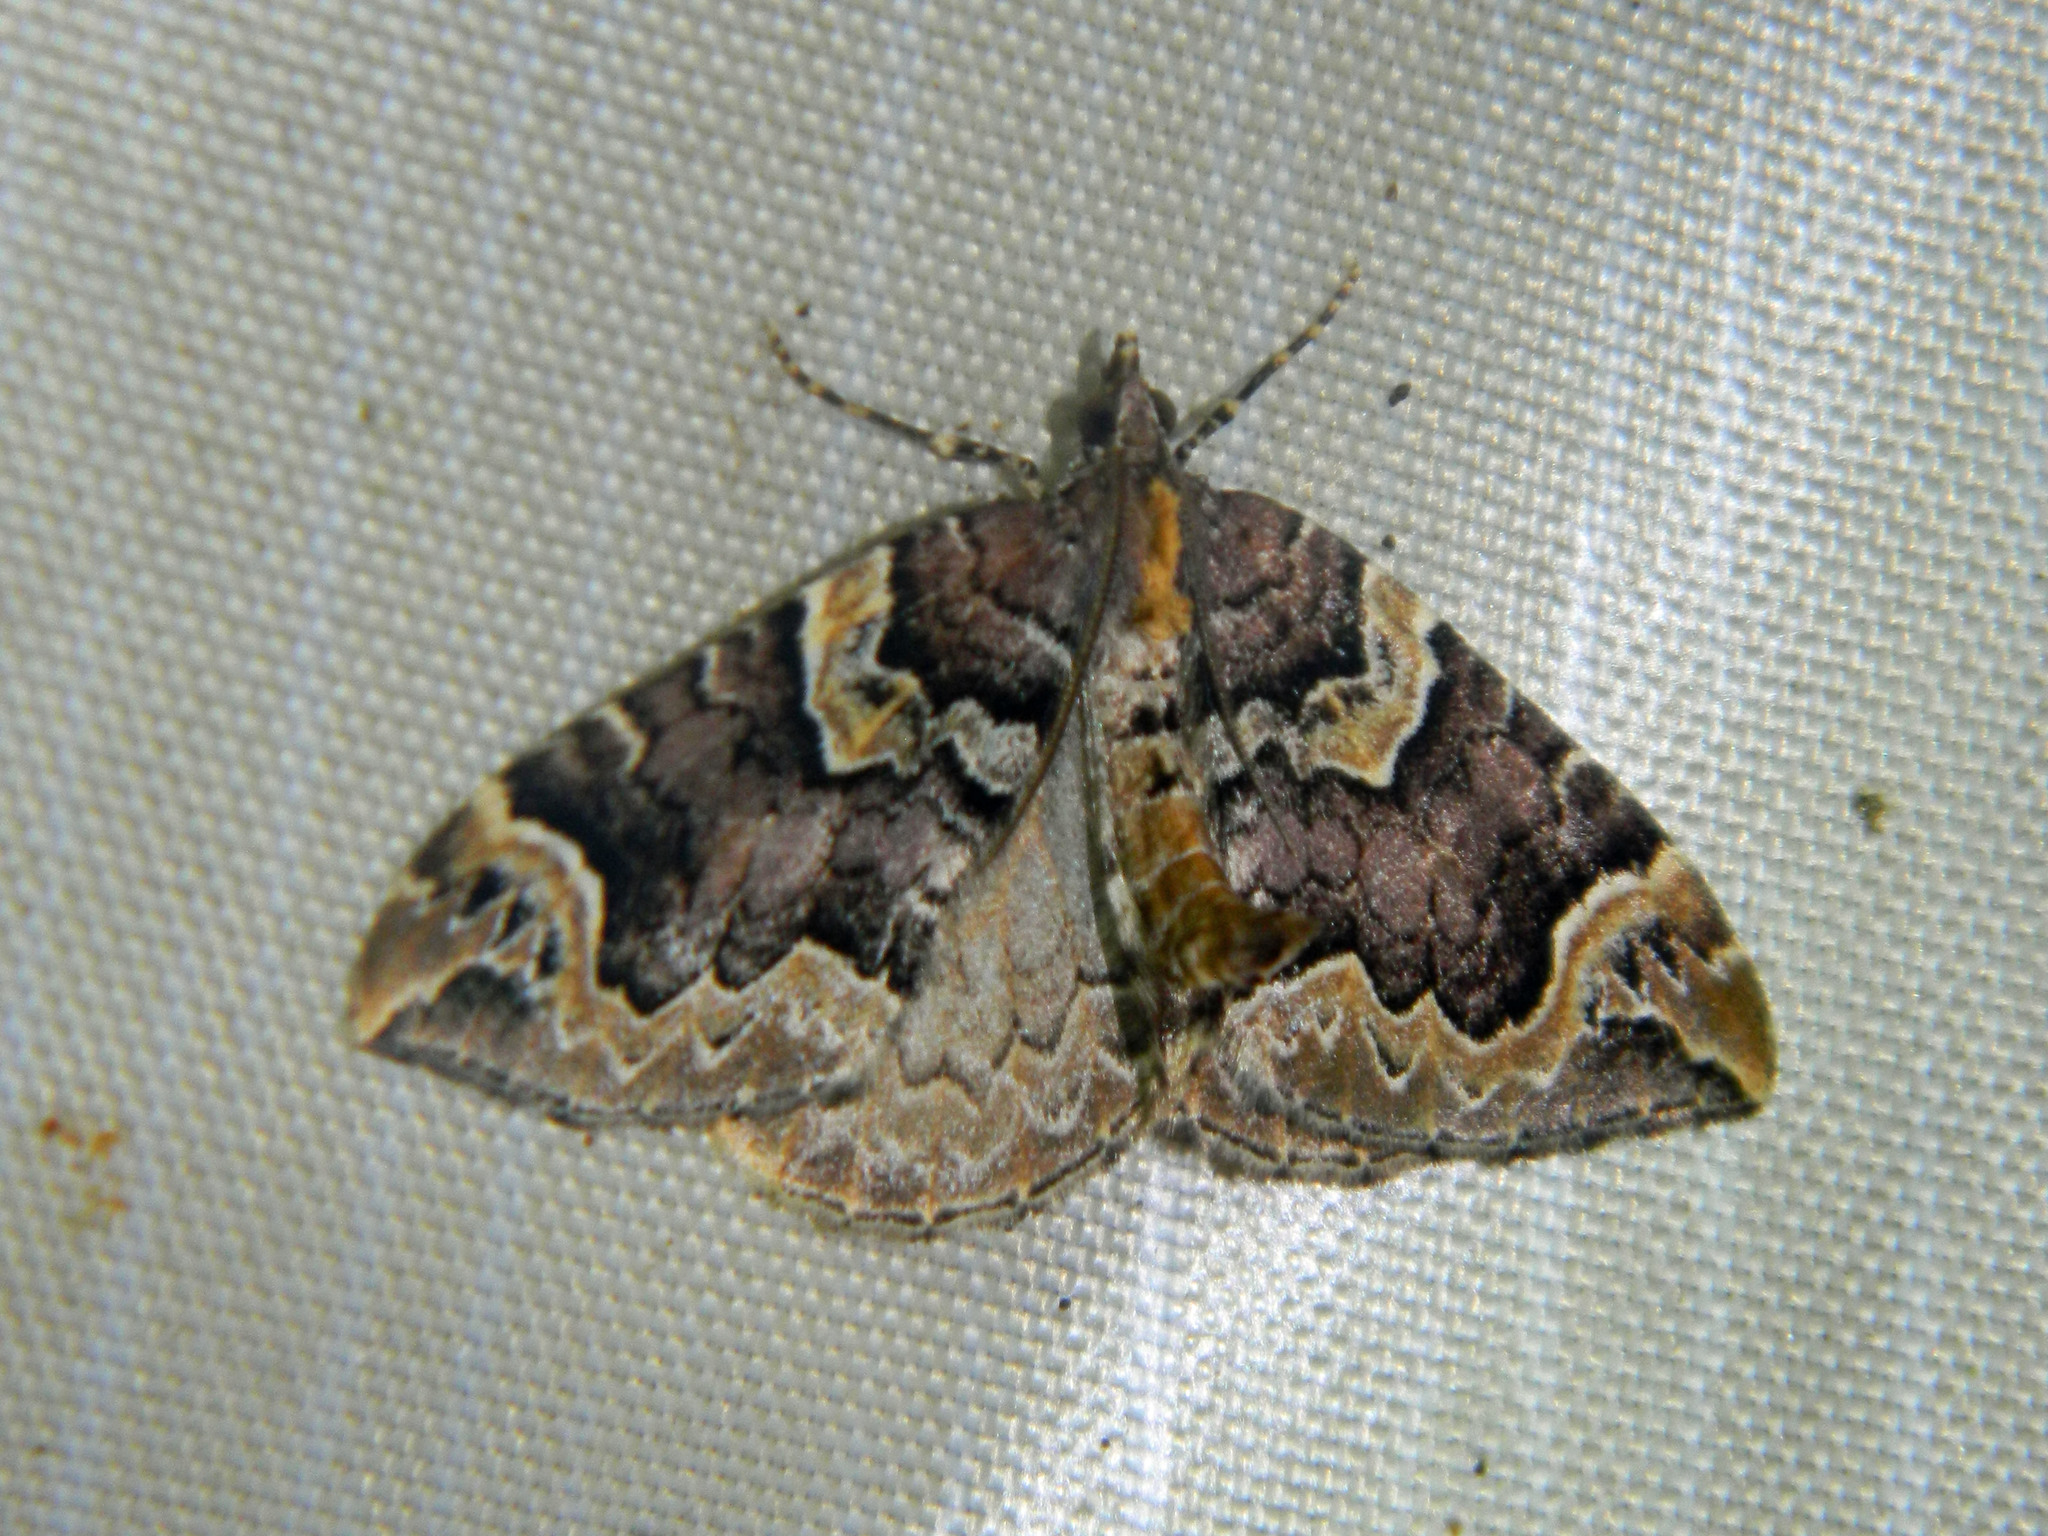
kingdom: Animalia
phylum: Arthropoda
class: Insecta
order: Lepidoptera
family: Geometridae
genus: Eulithis
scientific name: Eulithis serrataria
